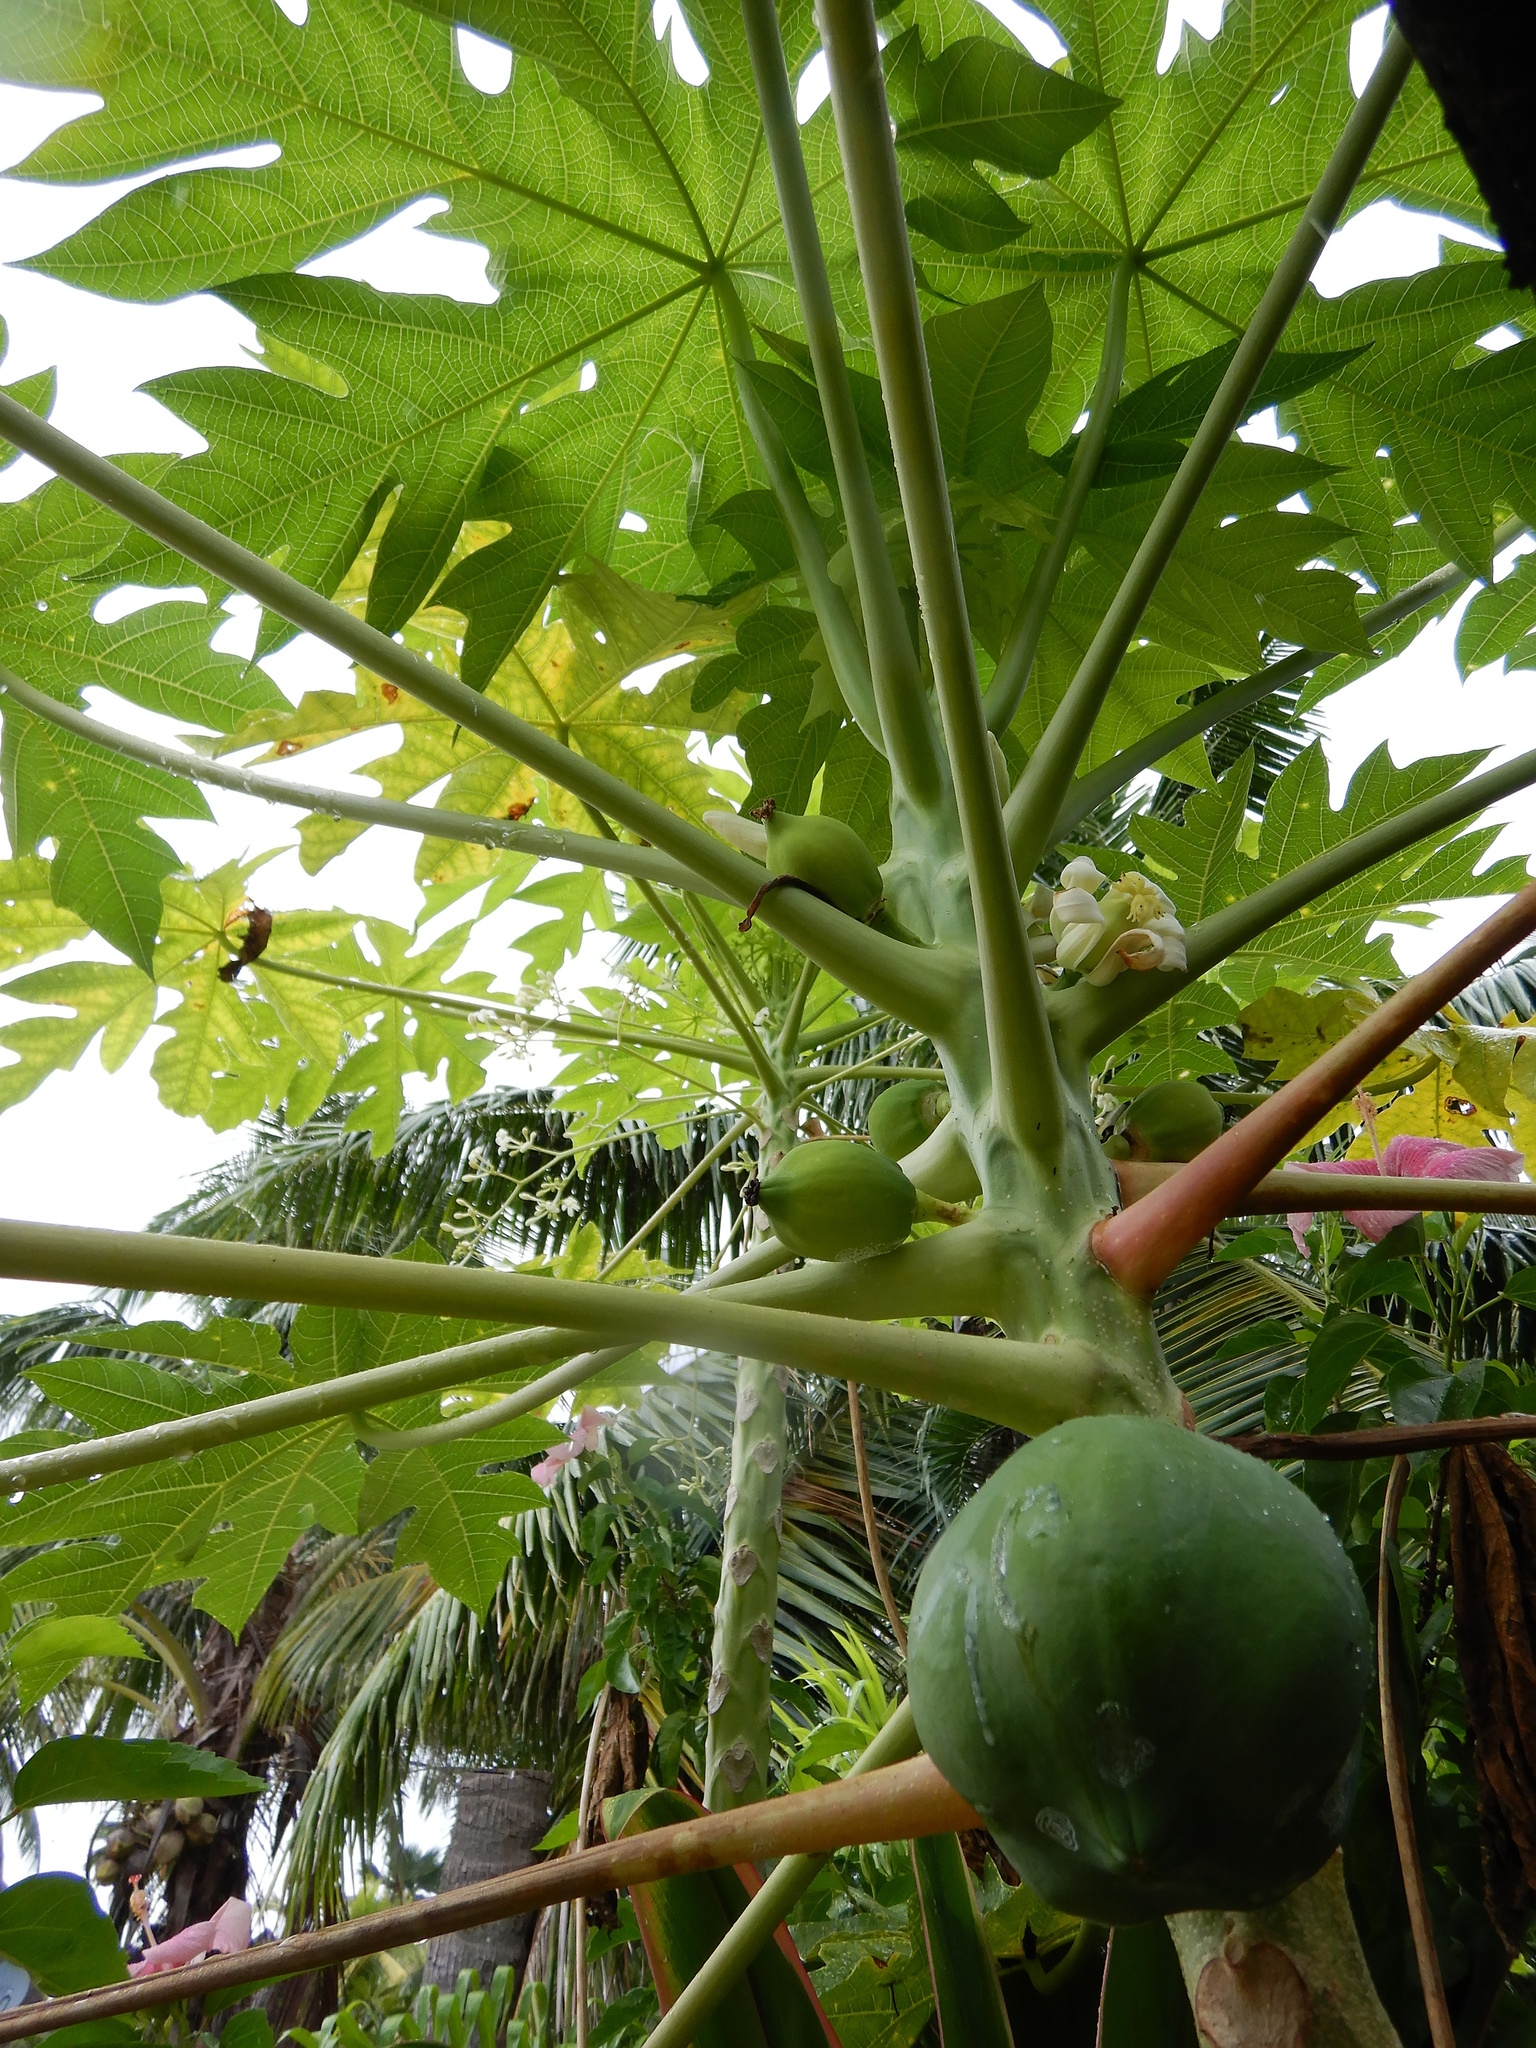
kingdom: Plantae
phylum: Tracheophyta
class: Magnoliopsida
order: Brassicales
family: Caricaceae
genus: Carica
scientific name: Carica papaya
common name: Papaya
